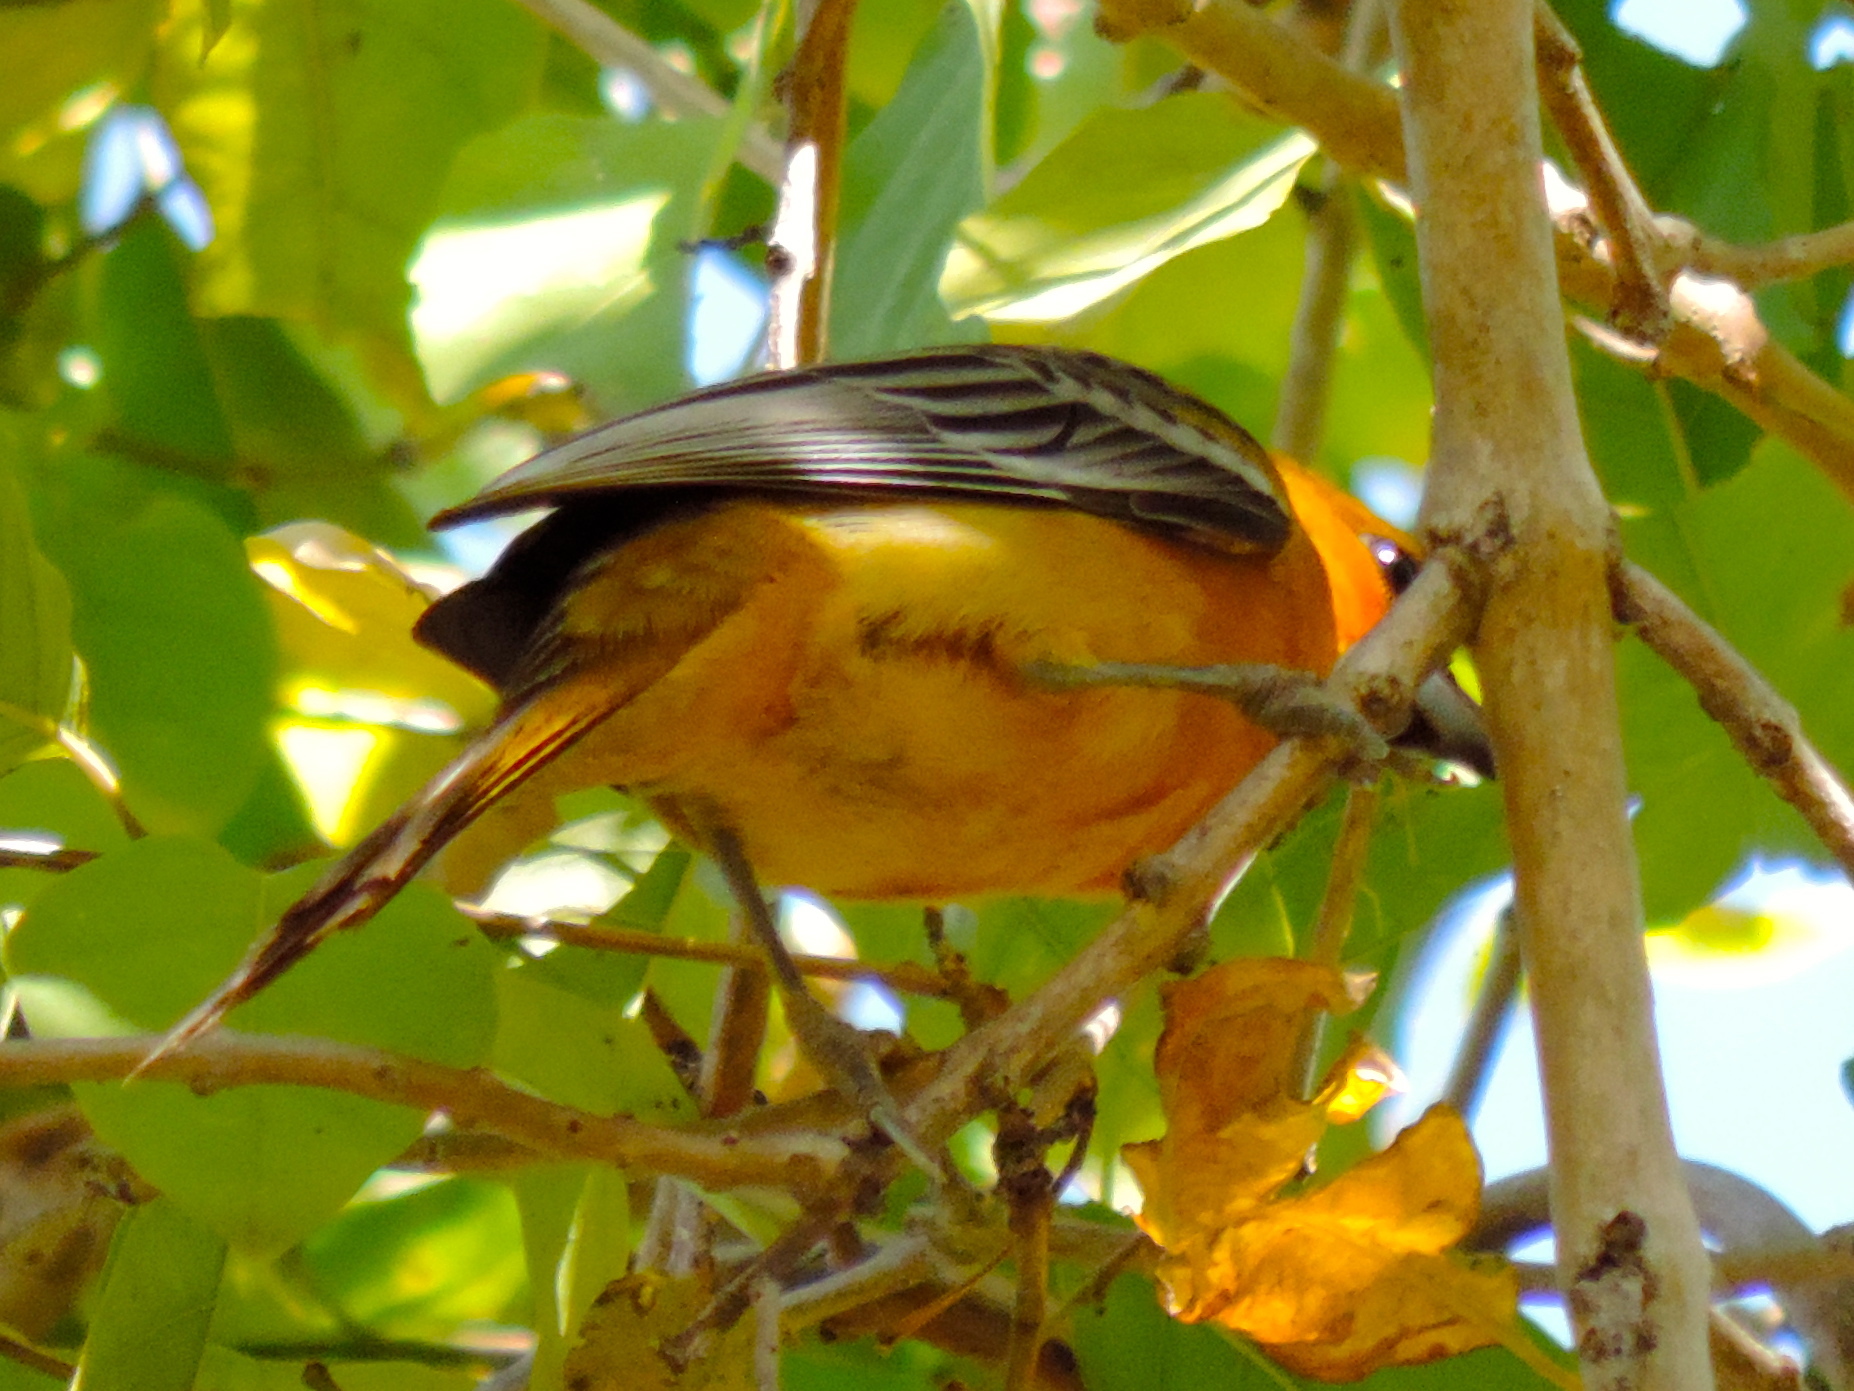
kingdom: Animalia
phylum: Chordata
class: Aves
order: Passeriformes
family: Icteridae
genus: Icterus
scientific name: Icterus cucullatus
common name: Hooded oriole
